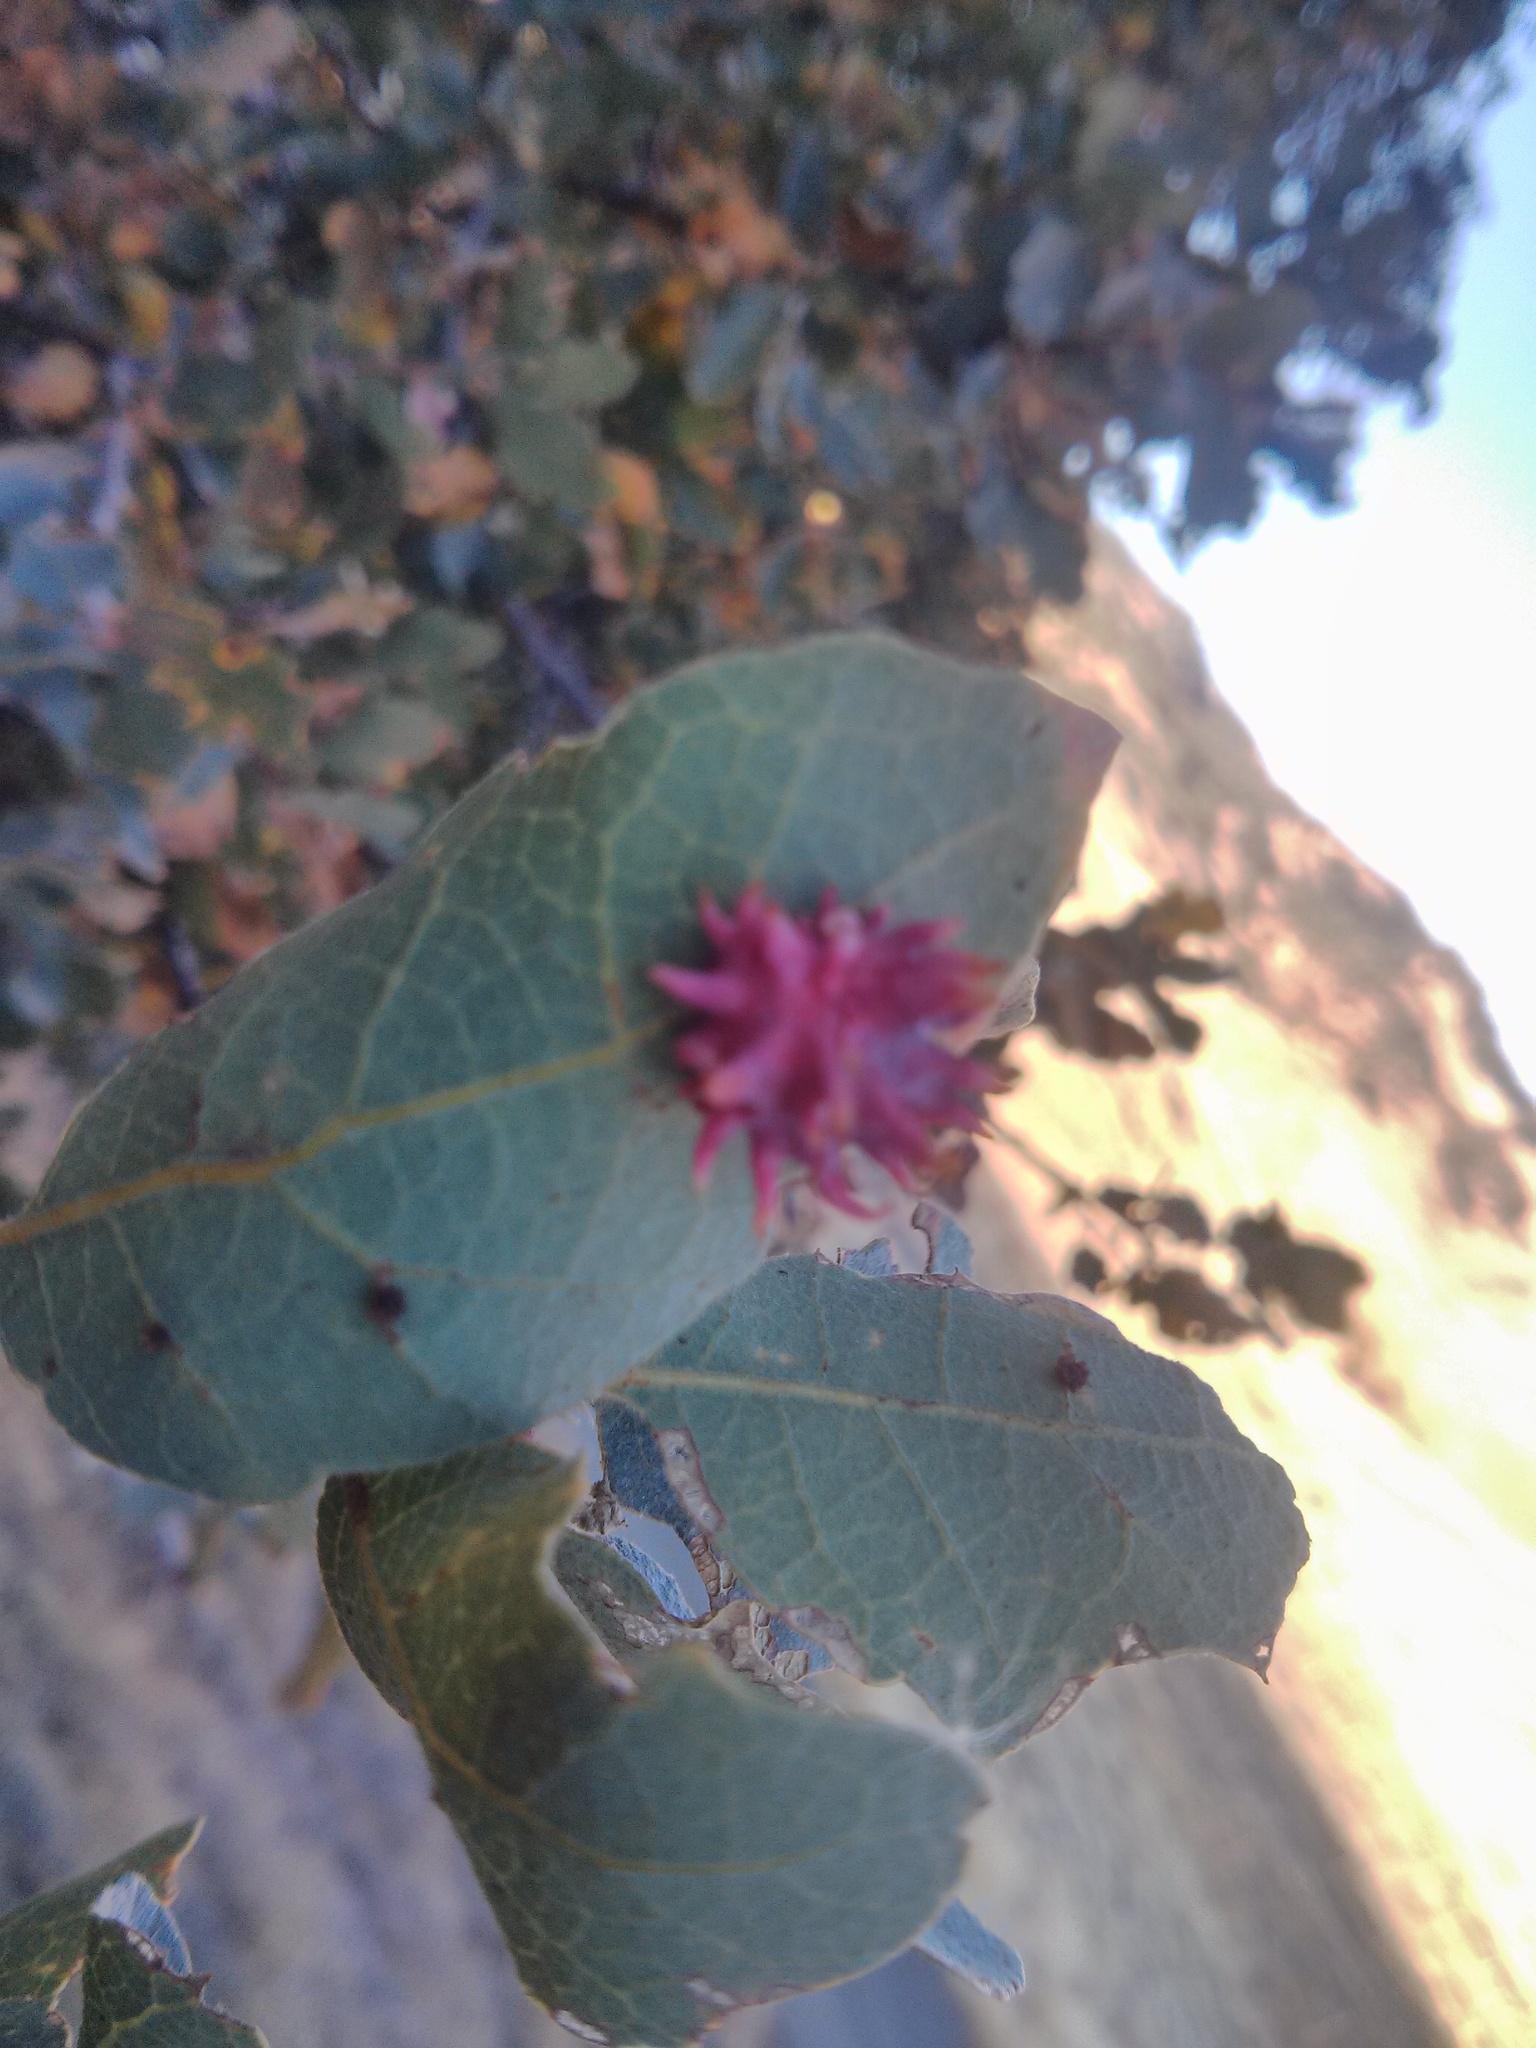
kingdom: Animalia
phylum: Arthropoda
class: Insecta
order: Hymenoptera
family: Cynipidae
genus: Cynips
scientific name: Cynips
